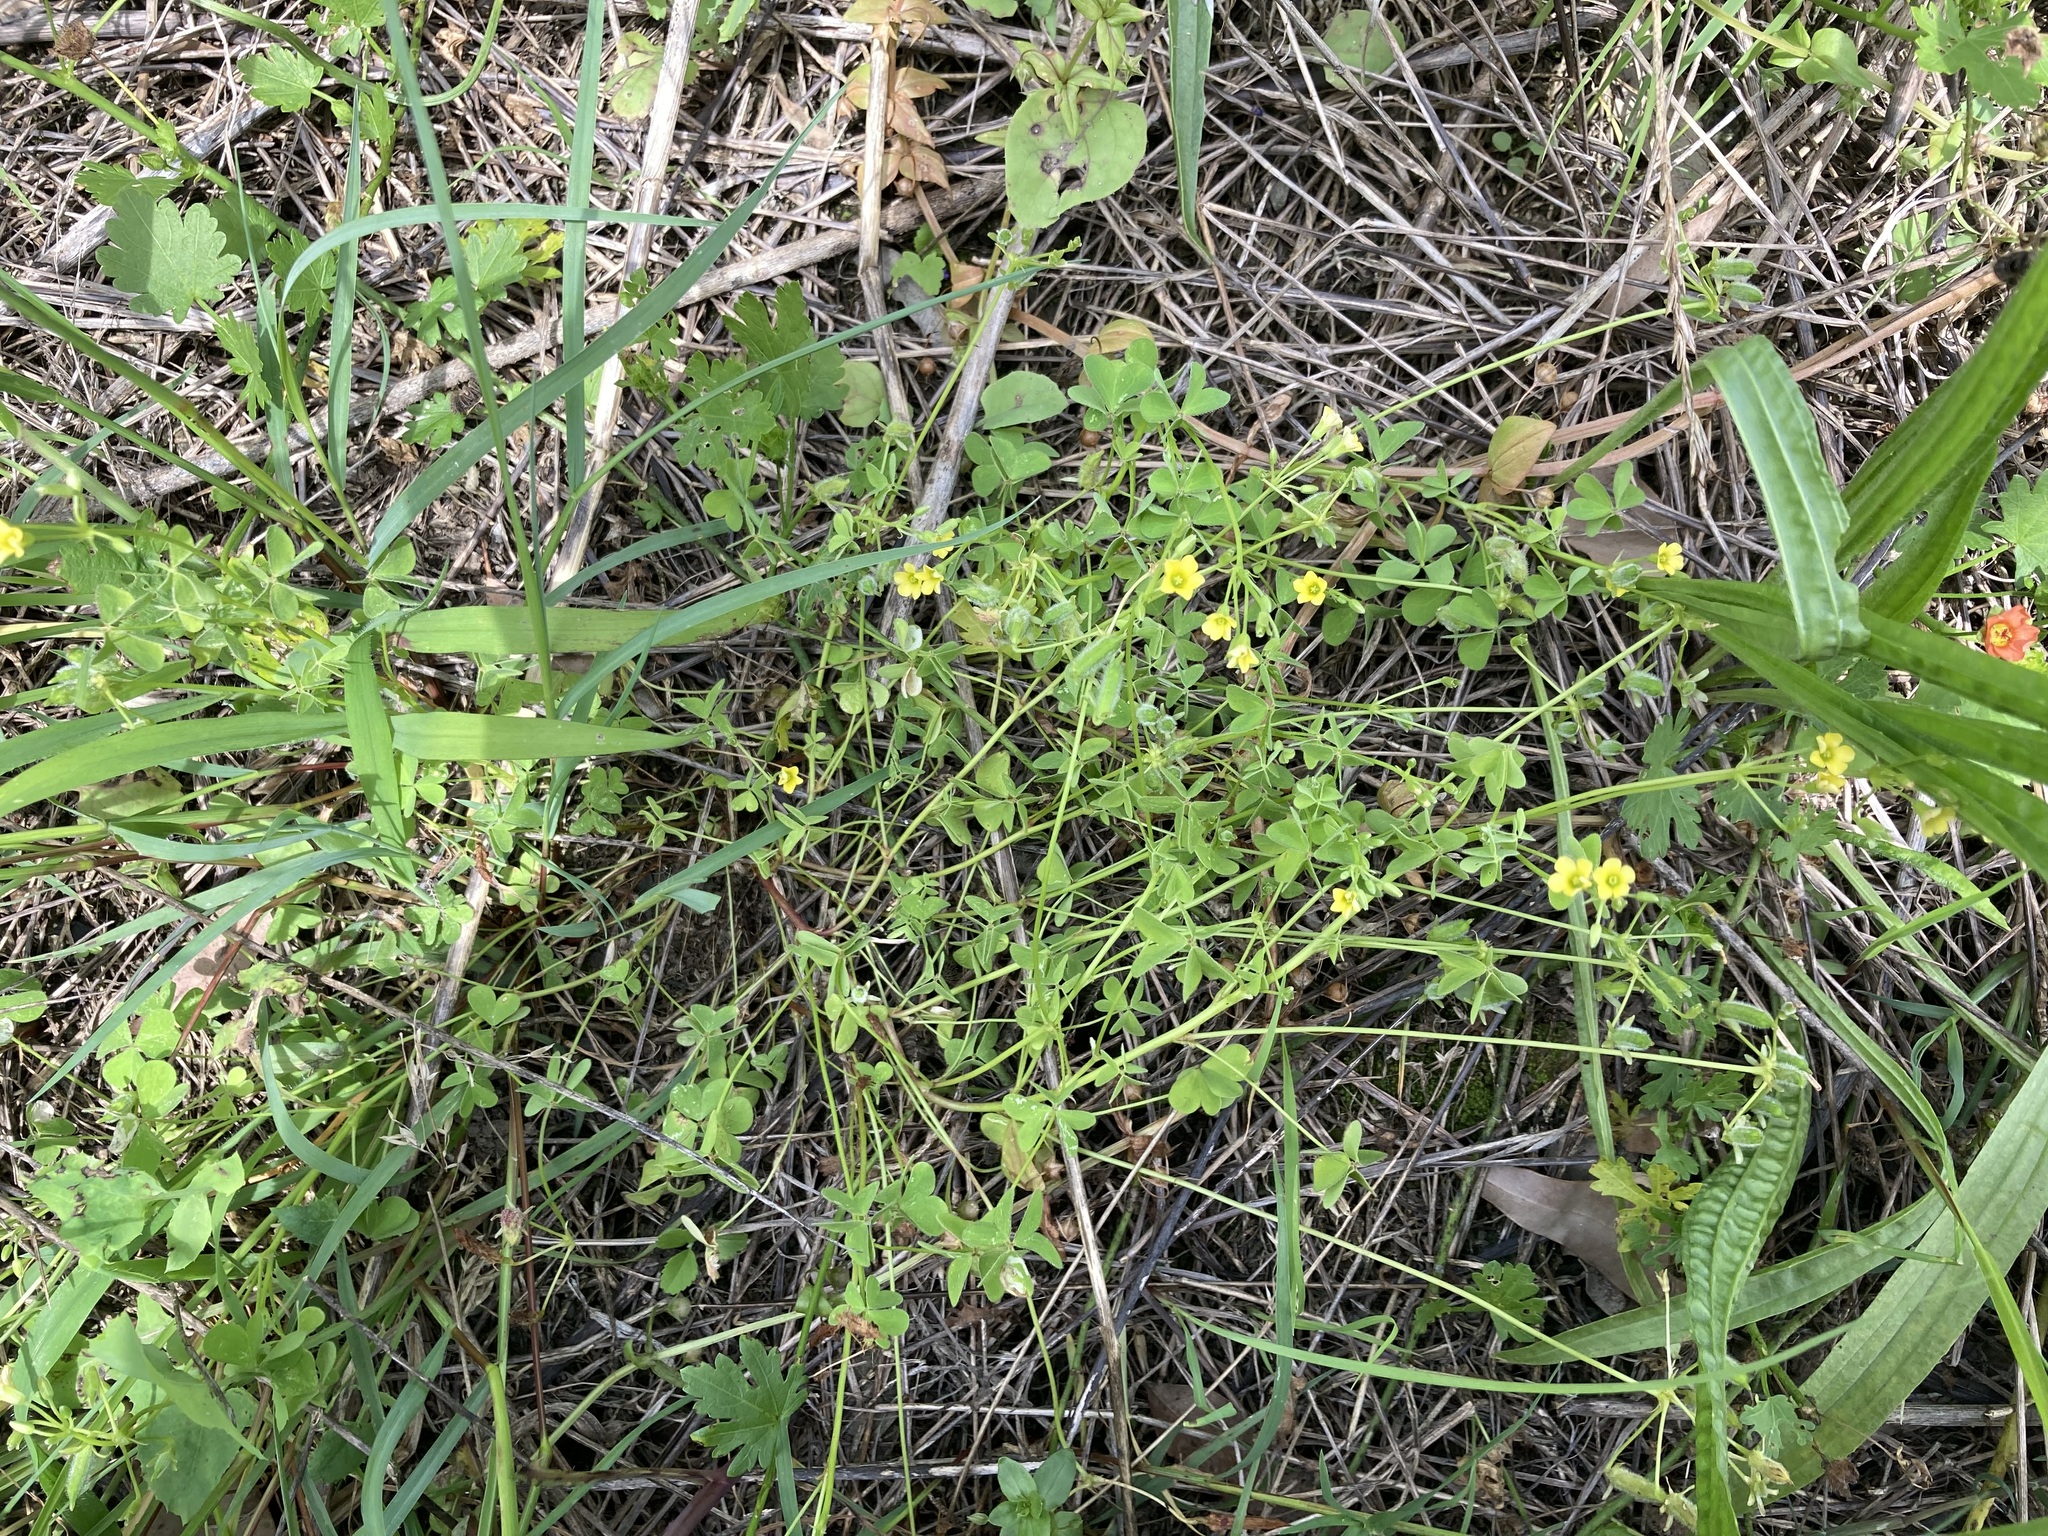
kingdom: Plantae
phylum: Tracheophyta
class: Magnoliopsida
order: Oxalidales
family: Oxalidaceae
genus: Oxalis
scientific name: Oxalis thompsoniae
